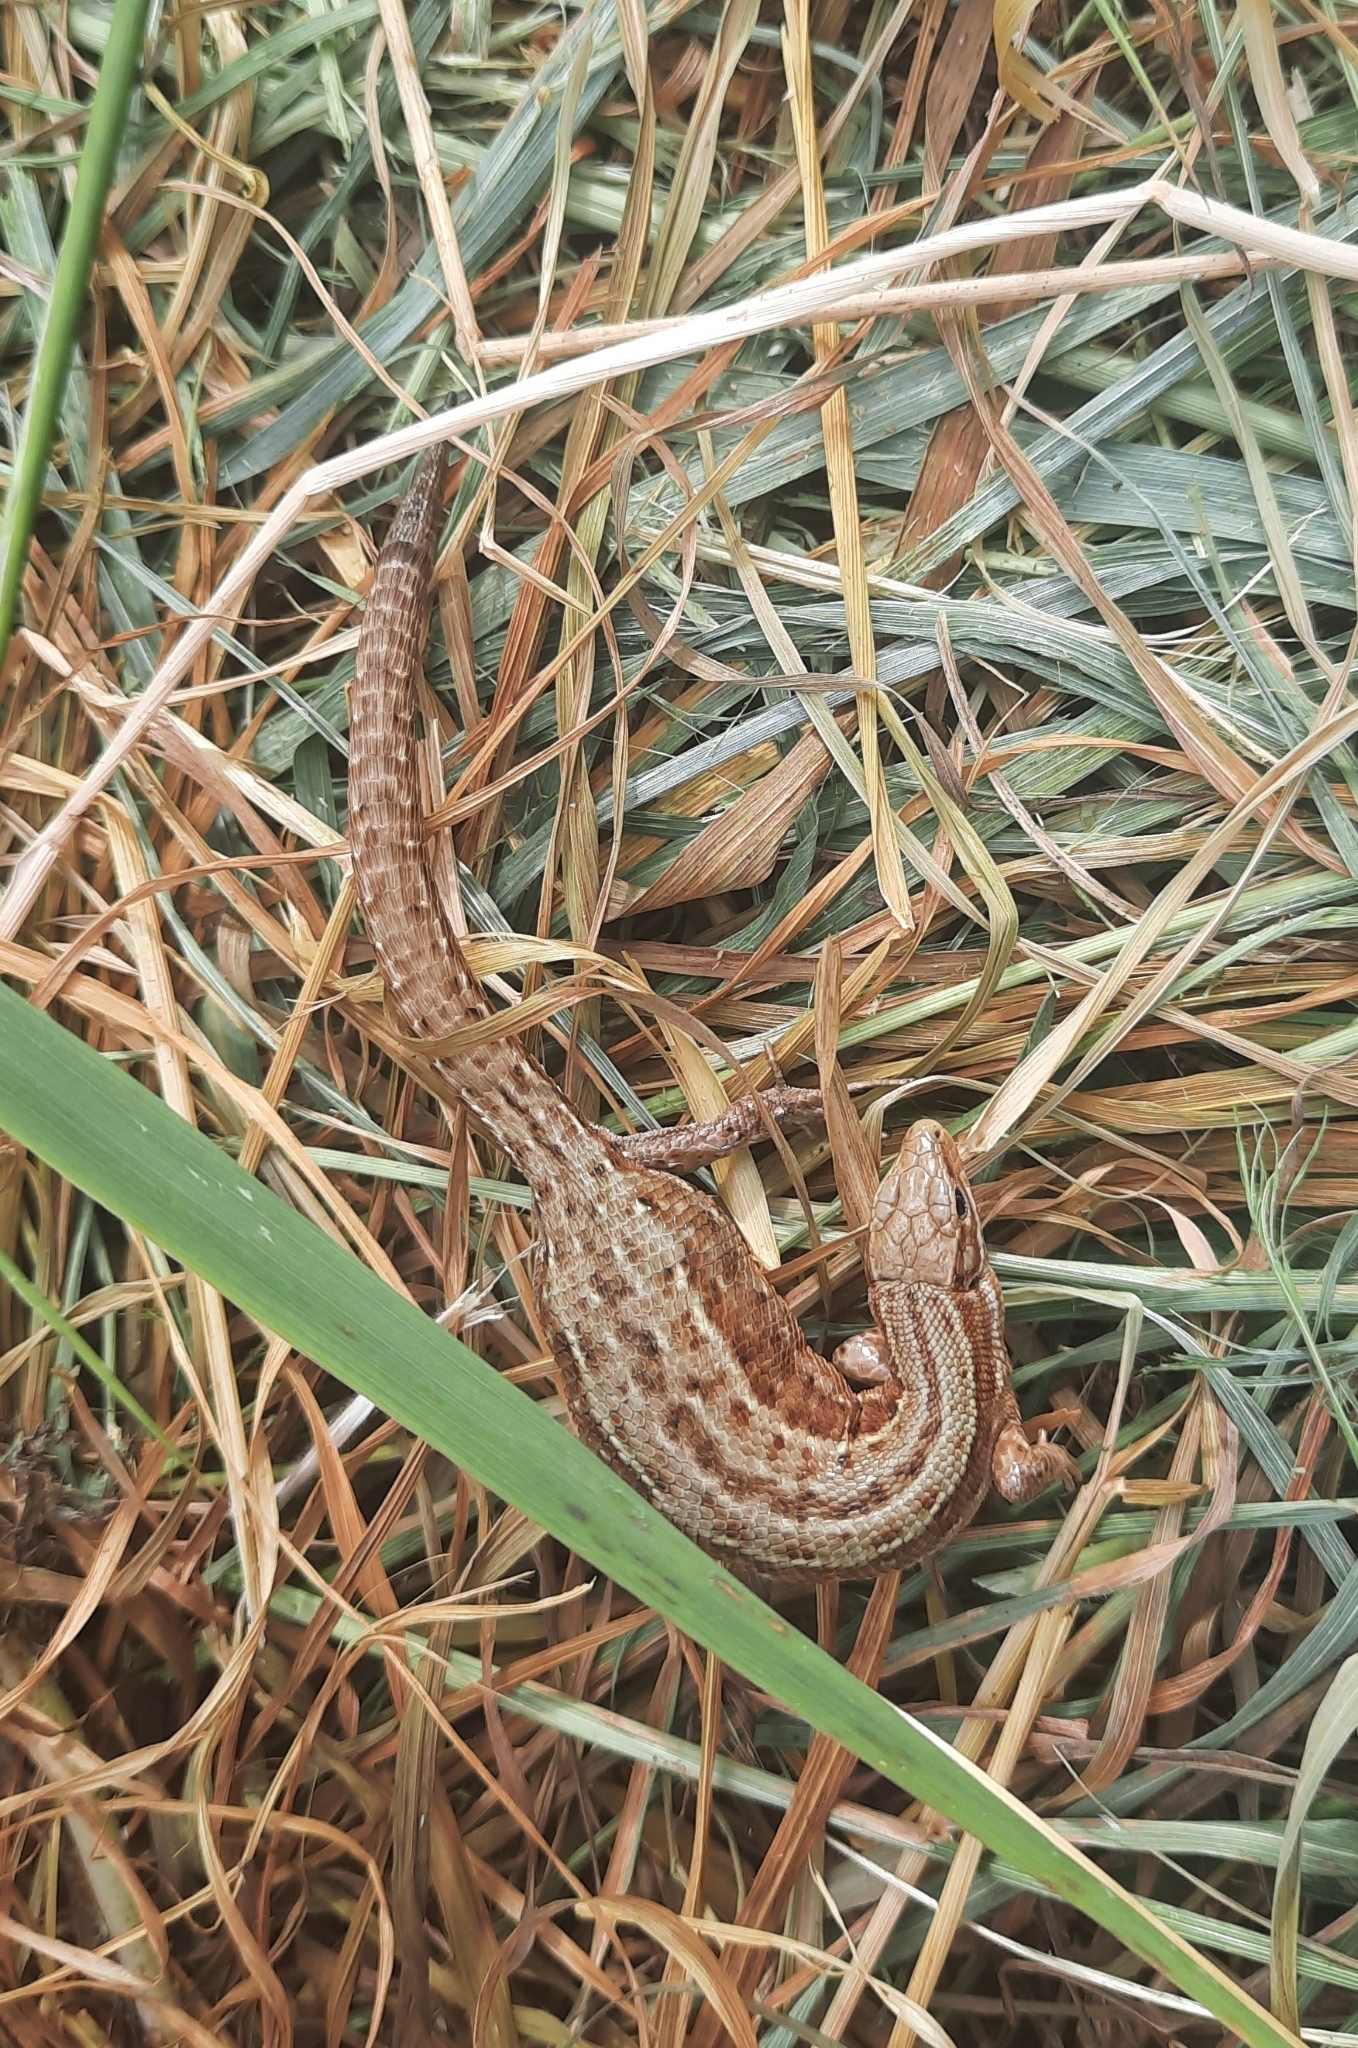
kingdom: Animalia
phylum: Chordata
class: Squamata
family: Lacertidae
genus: Zootoca
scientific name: Zootoca vivipara
